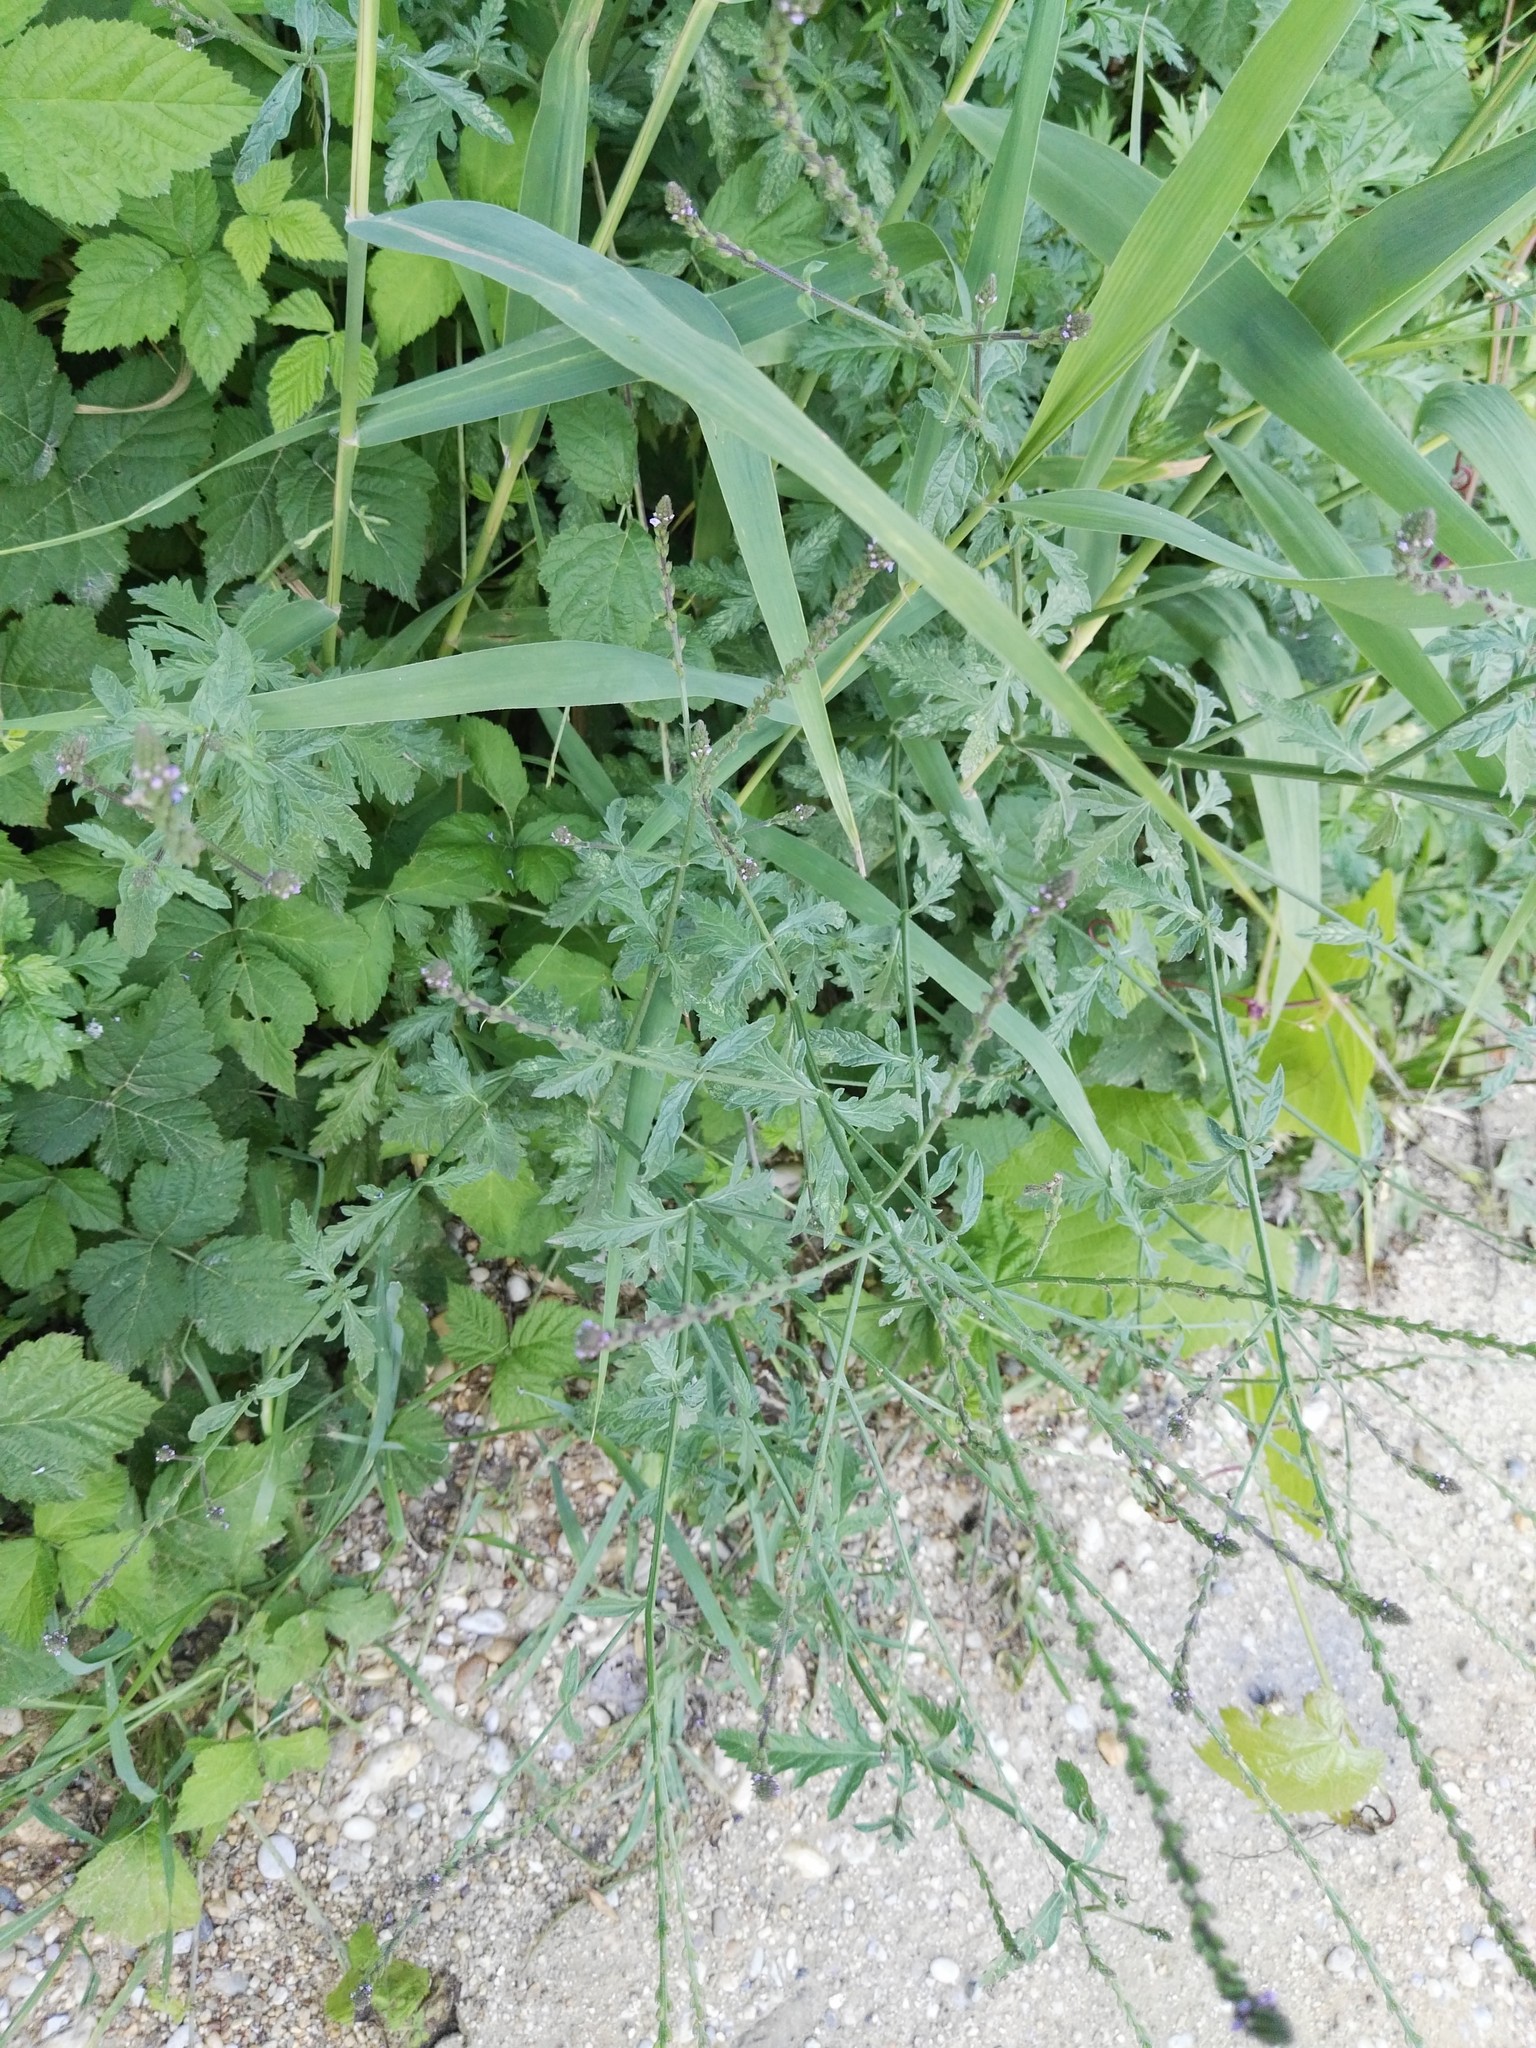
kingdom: Plantae
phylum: Tracheophyta
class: Magnoliopsida
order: Lamiales
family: Verbenaceae
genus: Verbena
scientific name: Verbena officinalis
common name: Vervain
